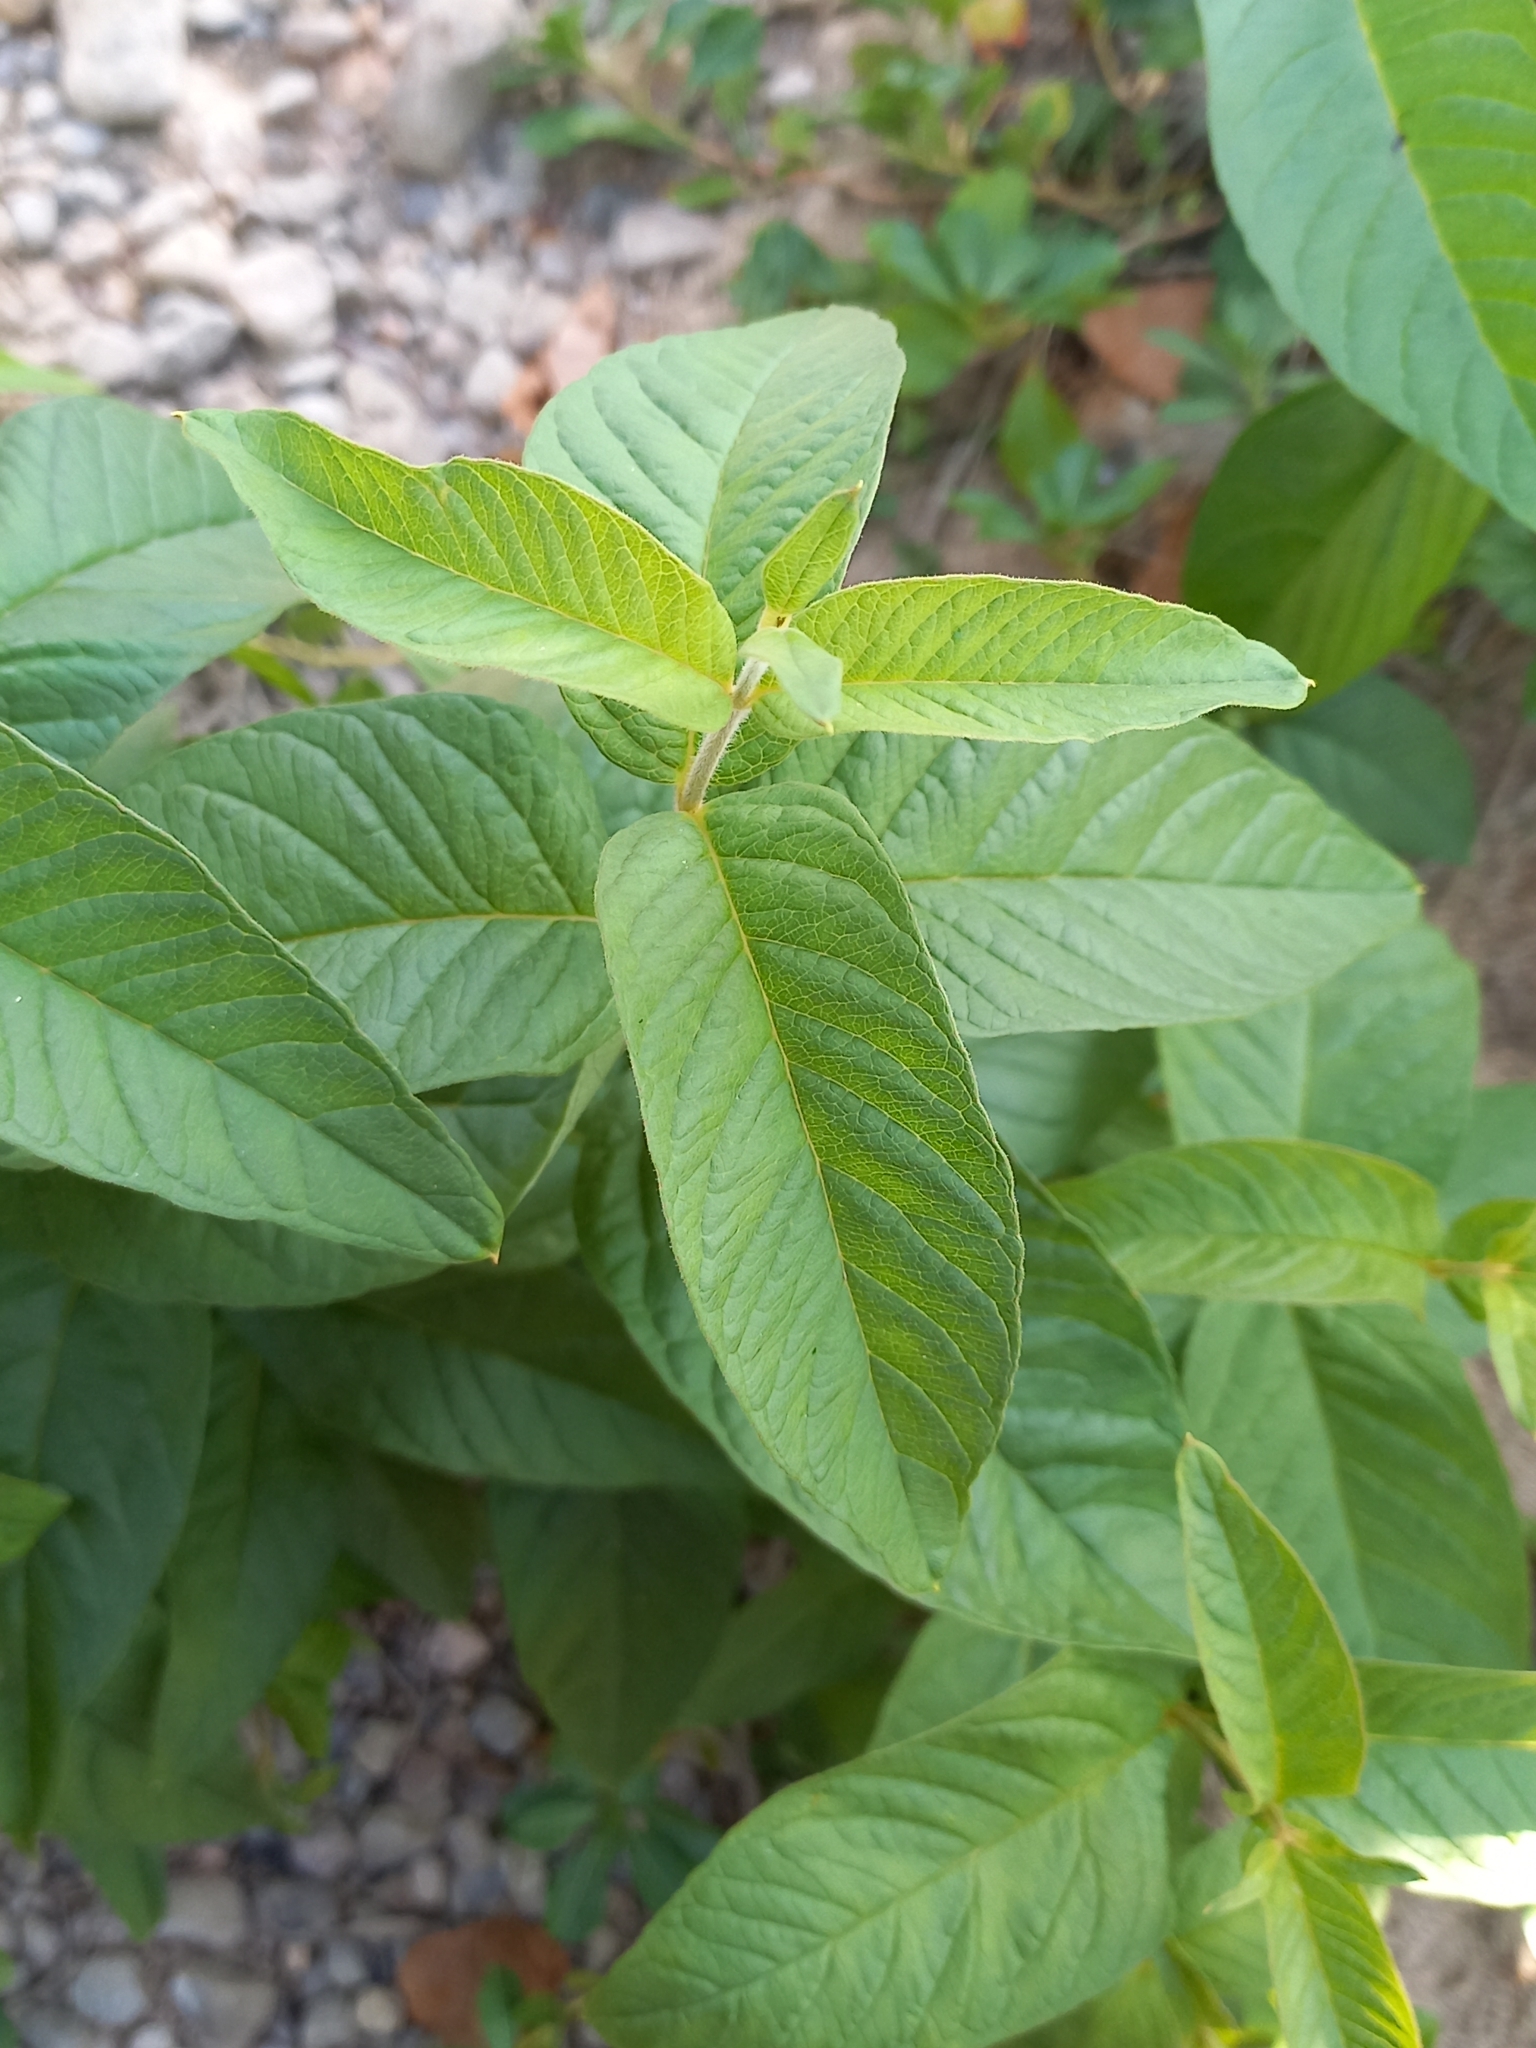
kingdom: Plantae
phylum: Tracheophyta
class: Magnoliopsida
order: Ericales
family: Primulaceae
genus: Lysimachia
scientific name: Lysimachia vulgaris
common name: Yellow loosestrife
